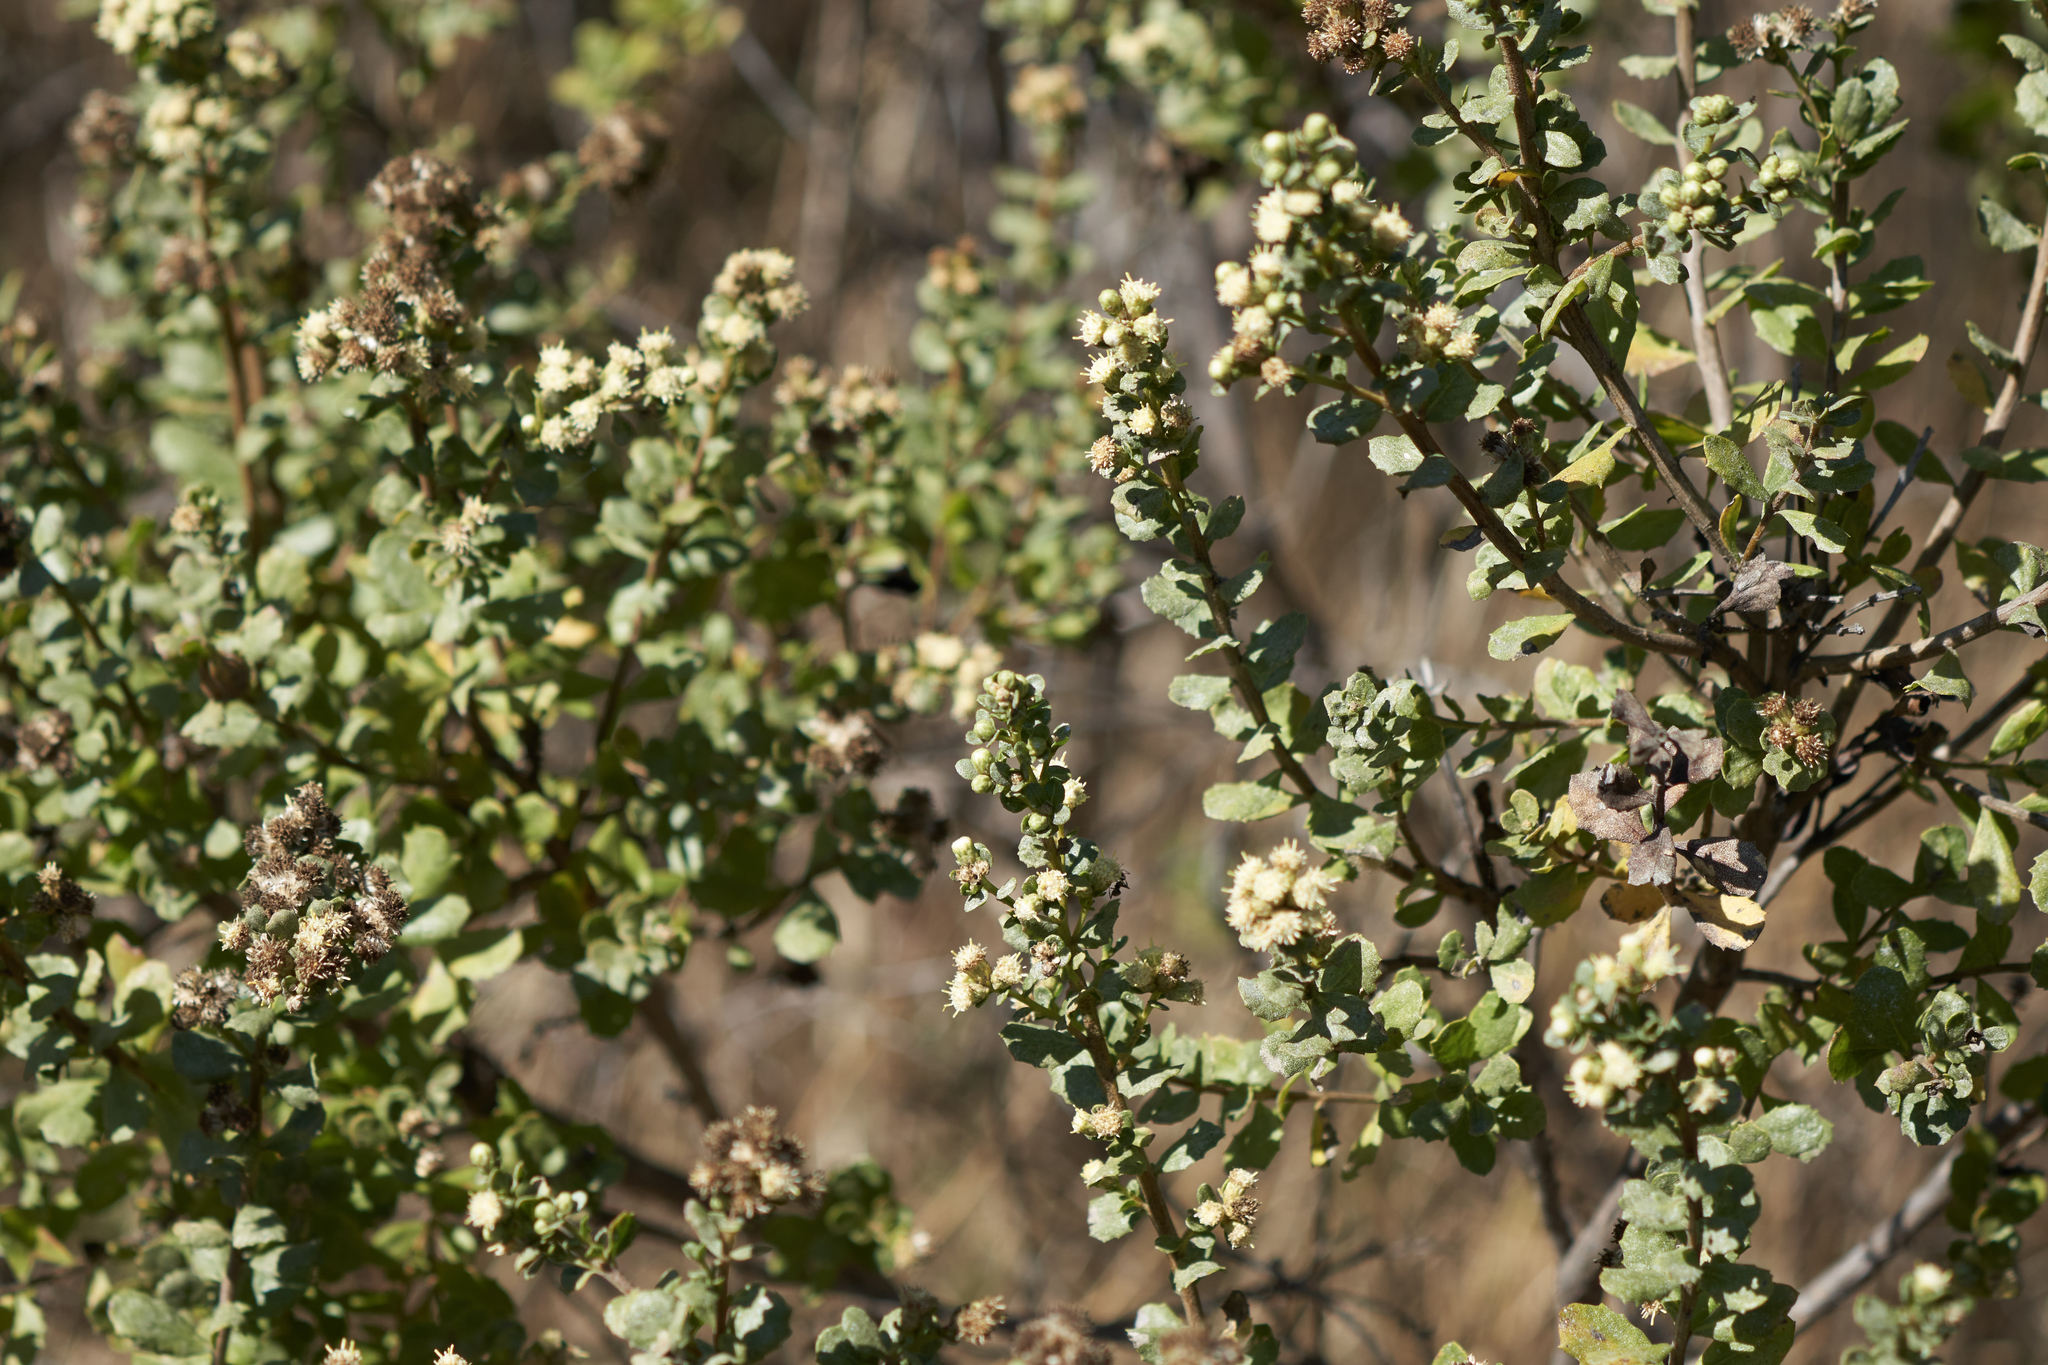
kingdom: Plantae
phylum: Tracheophyta
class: Magnoliopsida
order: Asterales
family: Asteraceae
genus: Baccharis
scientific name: Baccharis pilularis
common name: Coyotebrush
